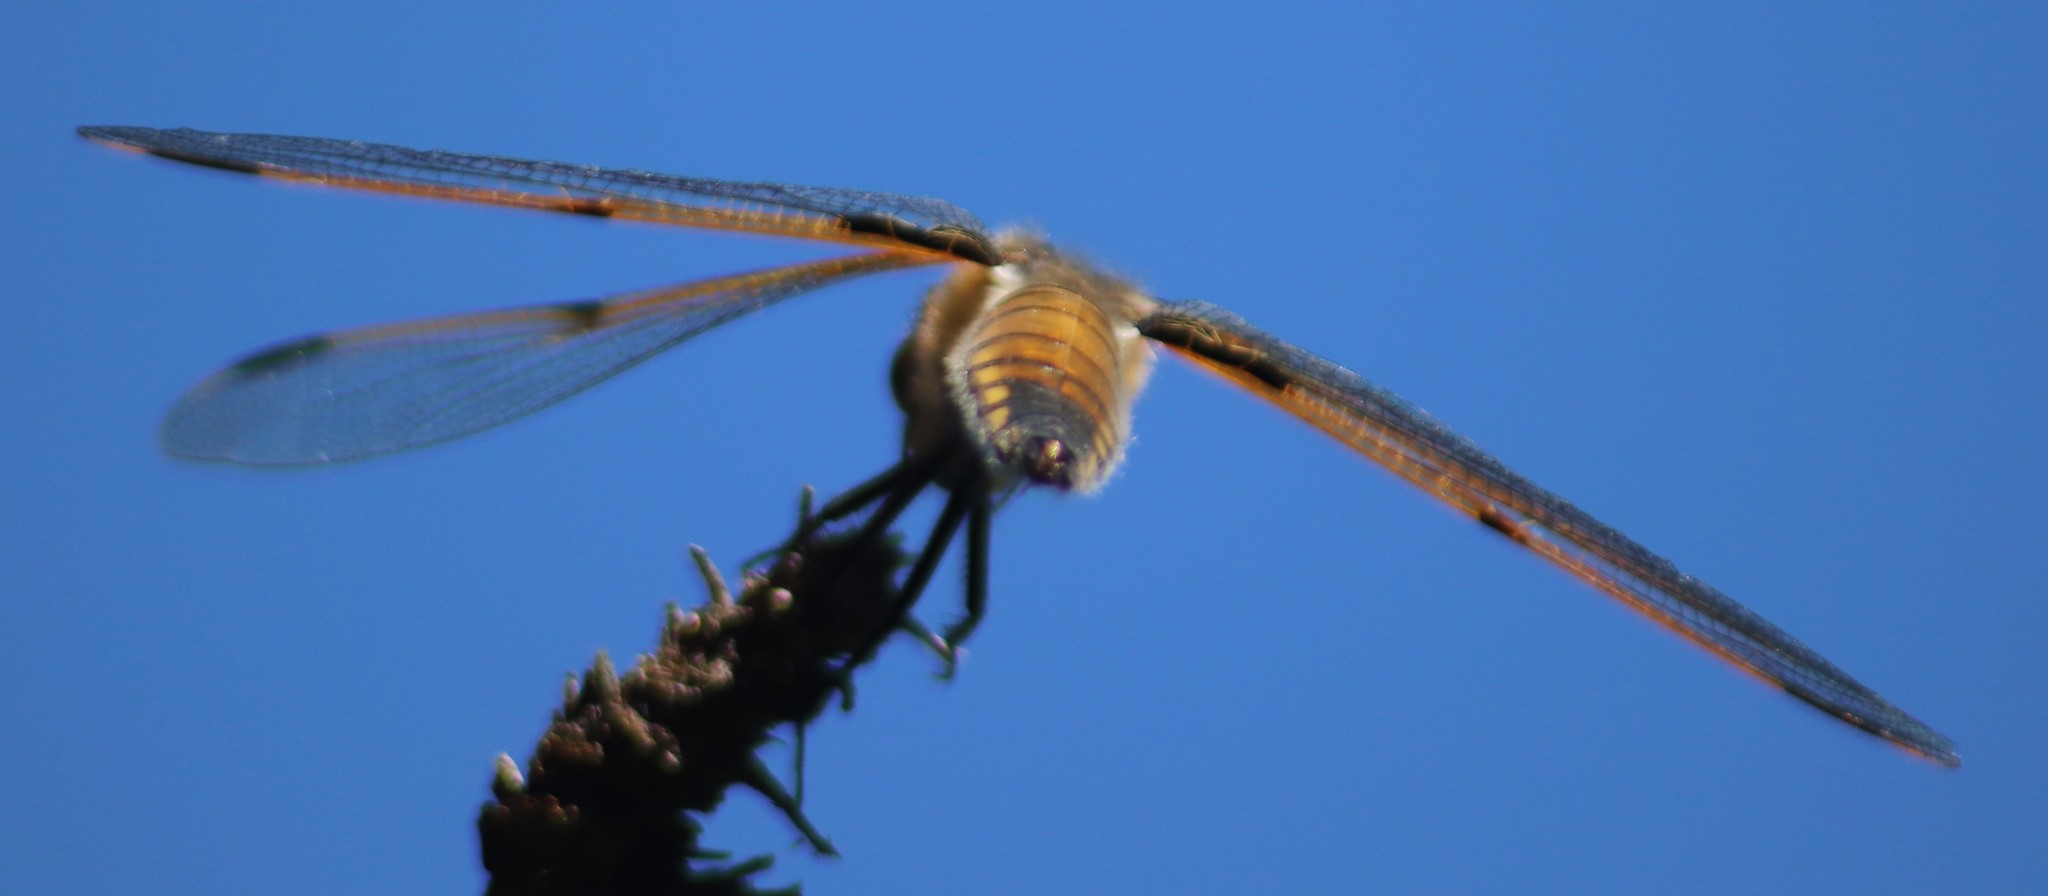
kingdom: Animalia
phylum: Arthropoda
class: Insecta
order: Odonata
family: Libellulidae
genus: Libellula
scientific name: Libellula quadrimaculata
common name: Four-spotted chaser
